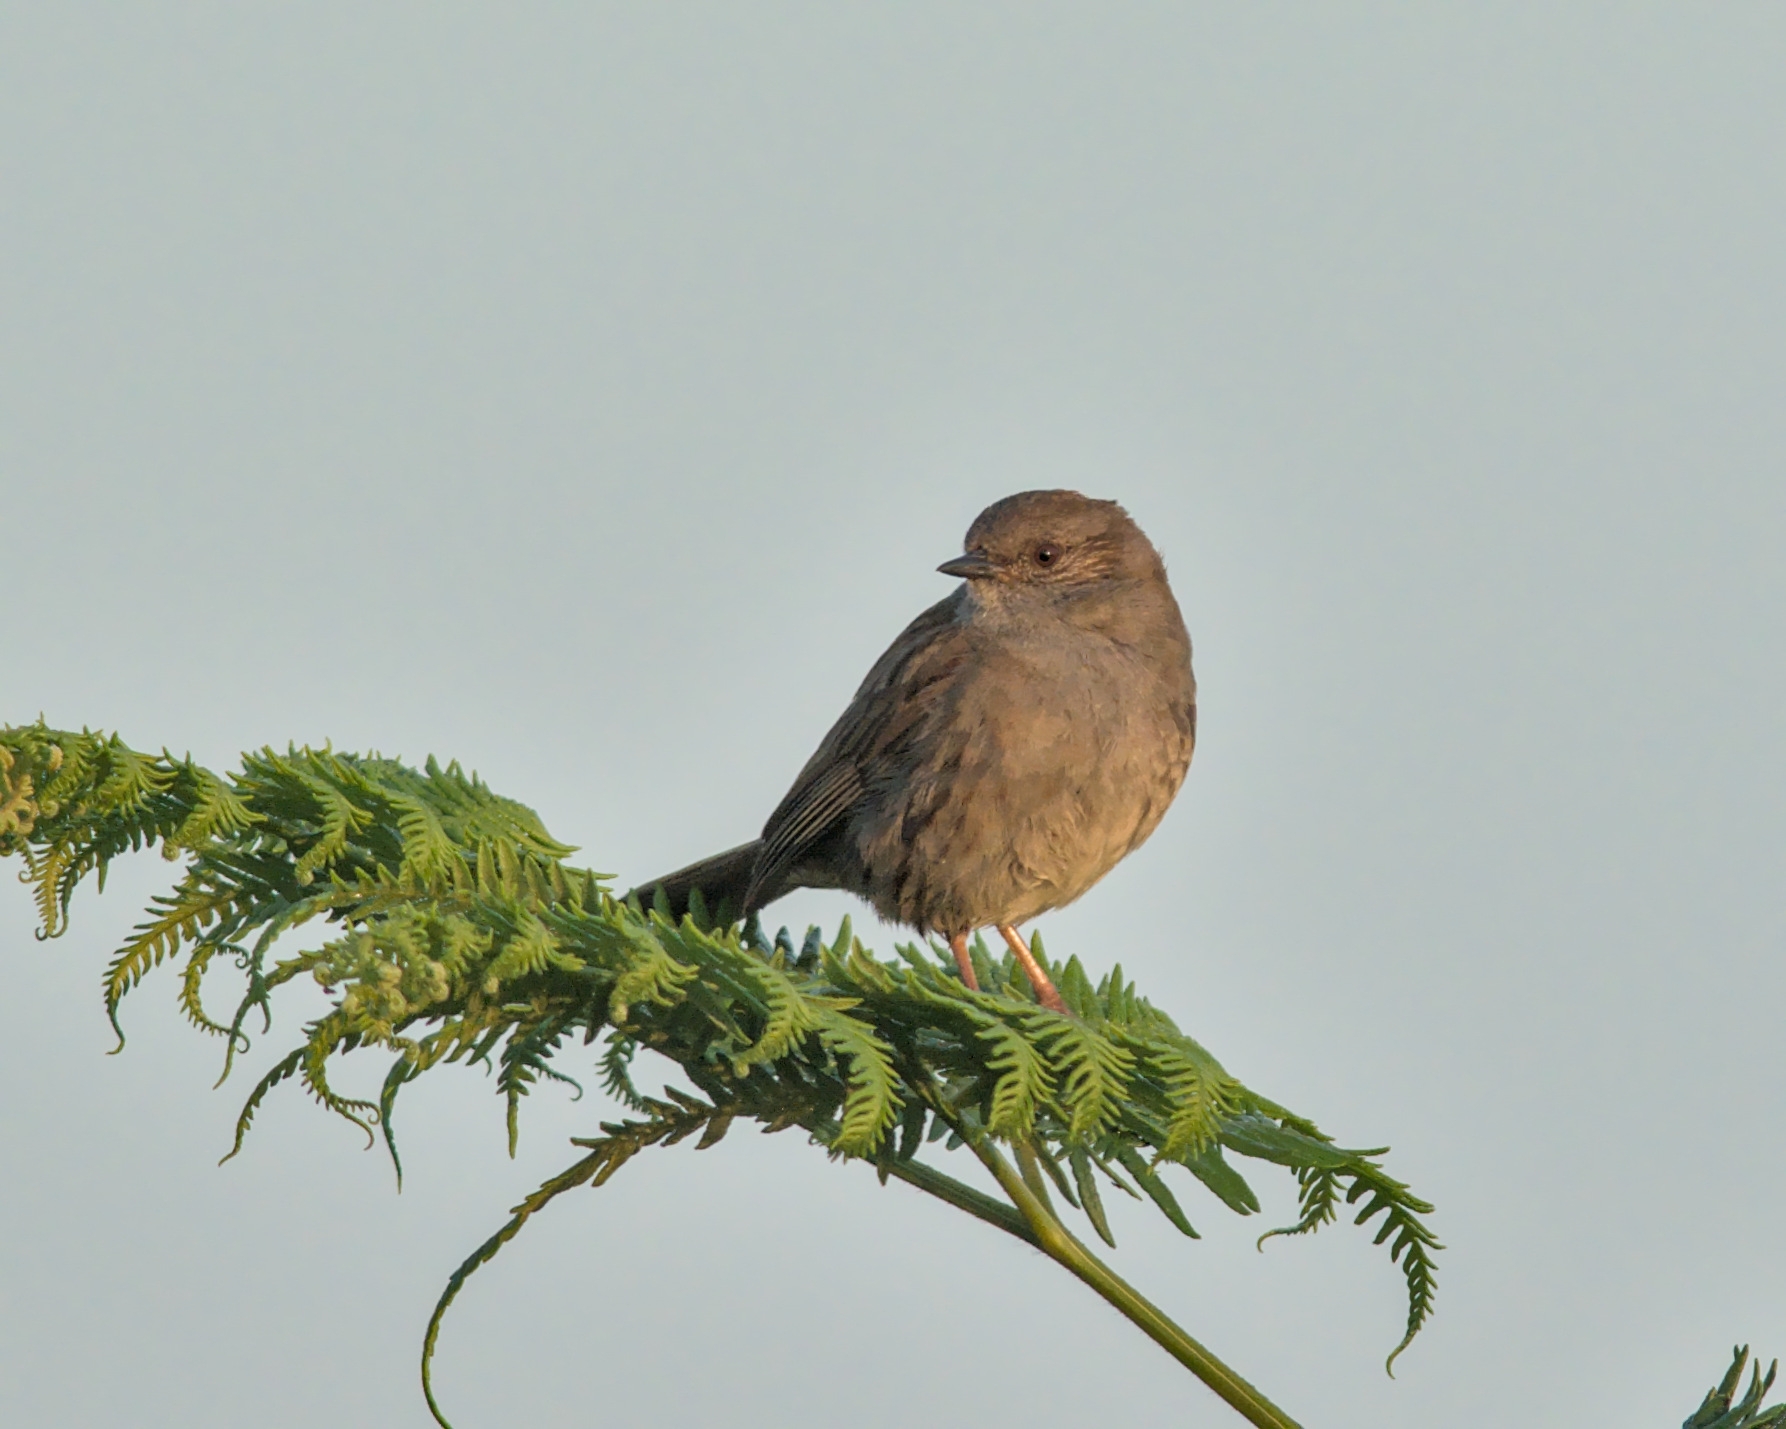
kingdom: Animalia
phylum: Chordata
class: Aves
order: Passeriformes
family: Prunellidae
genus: Prunella
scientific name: Prunella modularis
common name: Dunnock
